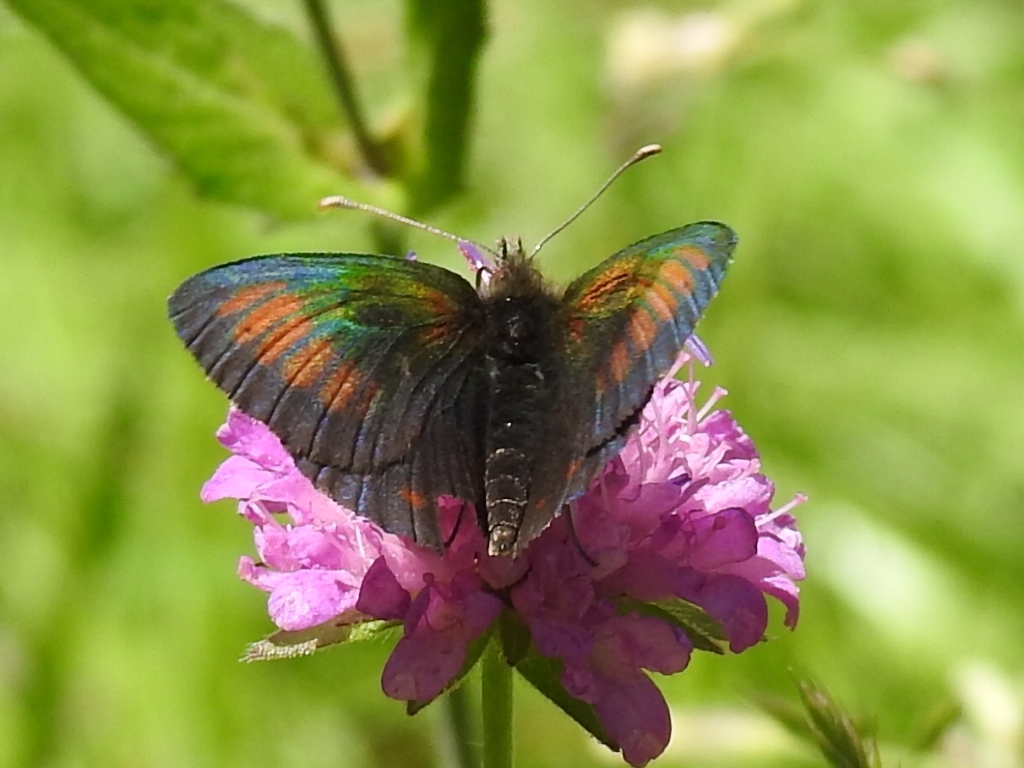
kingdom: Animalia
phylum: Arthropoda
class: Insecta
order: Lepidoptera
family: Nymphalidae
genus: Erebia
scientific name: Erebia tyndarus
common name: Swiss brassy ringlet
